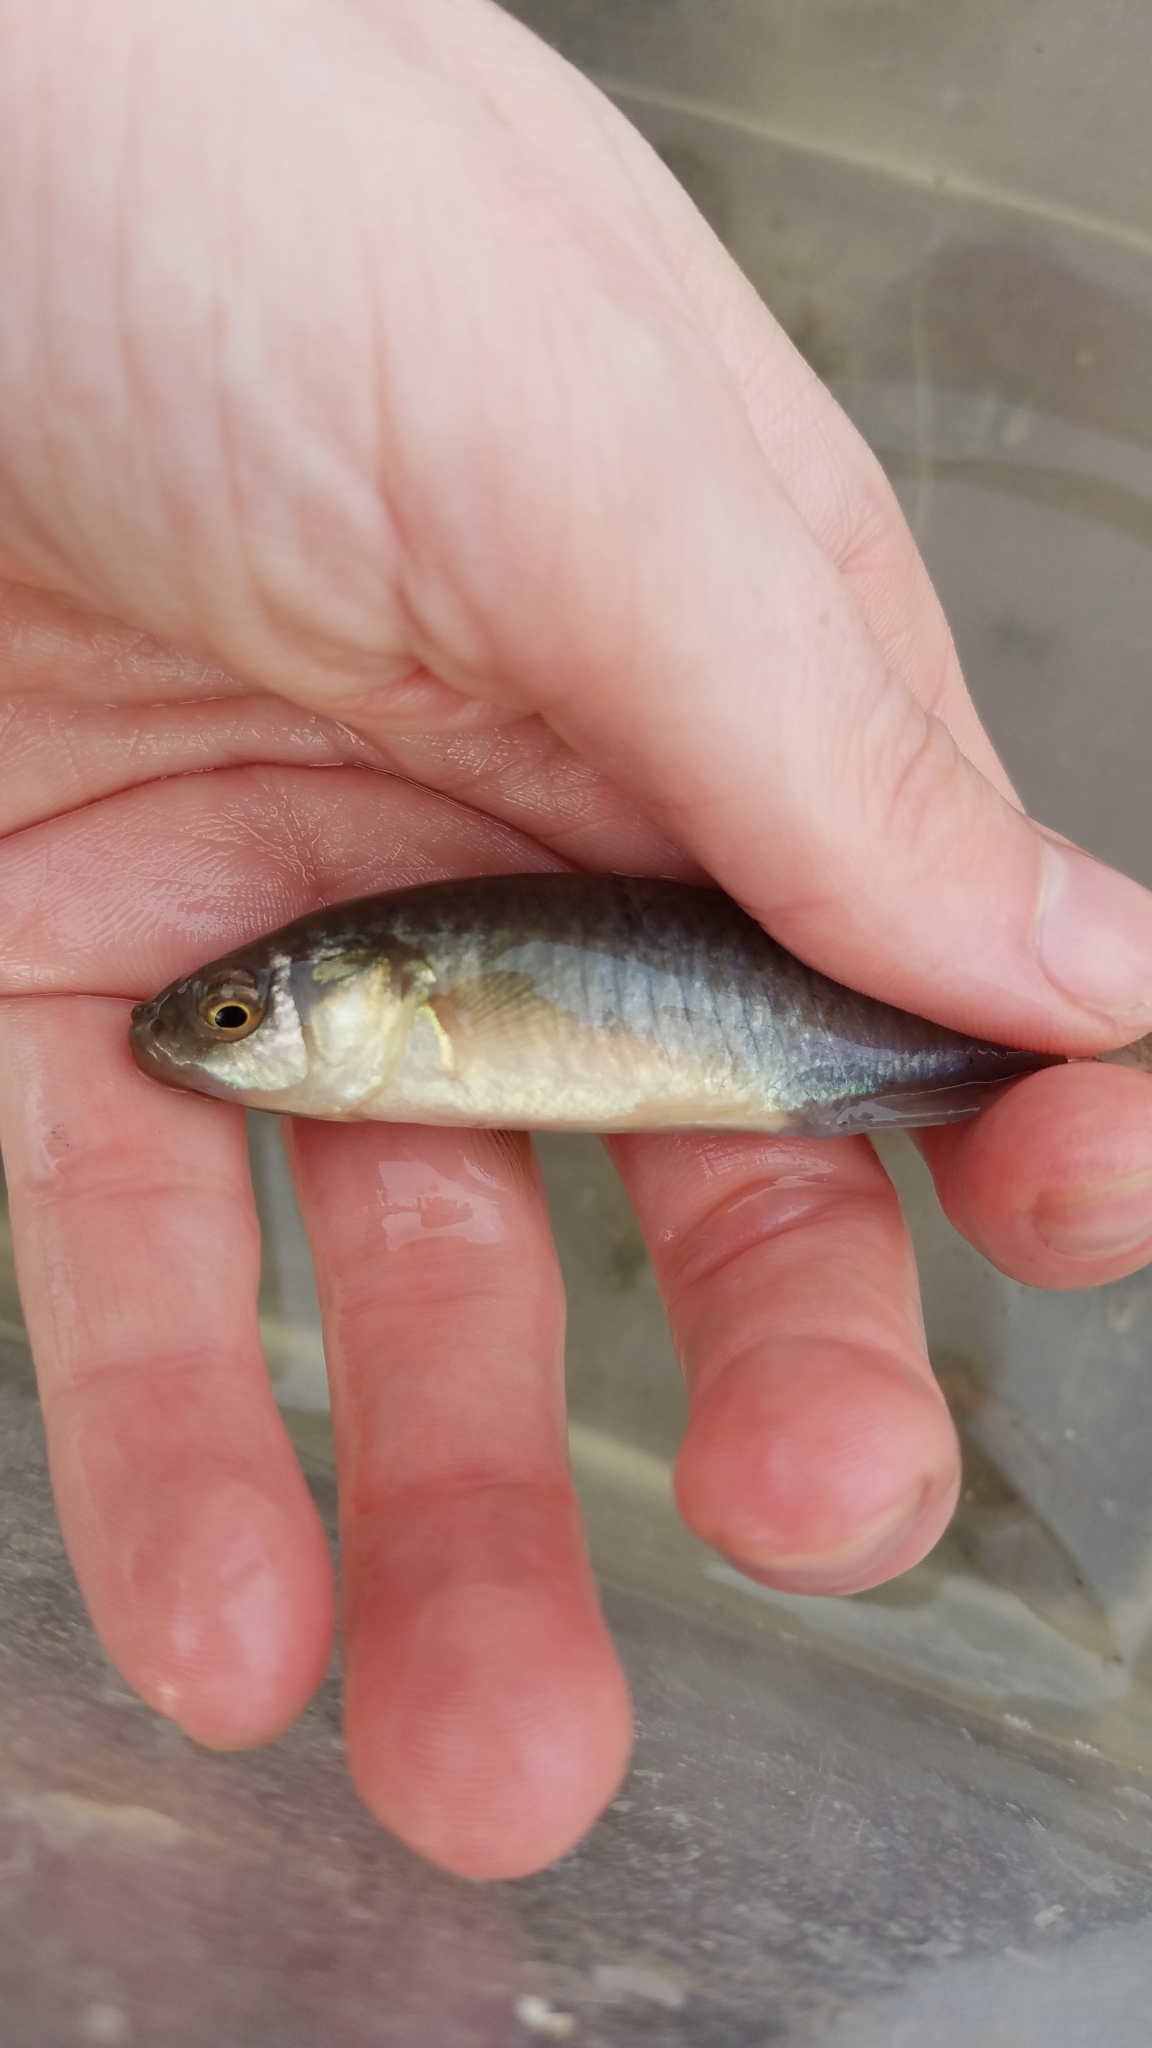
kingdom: Animalia
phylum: Chordata
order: Cyprinodontiformes
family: Fundulidae
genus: Fundulus
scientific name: Fundulus heteroclitus
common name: Mummichog
